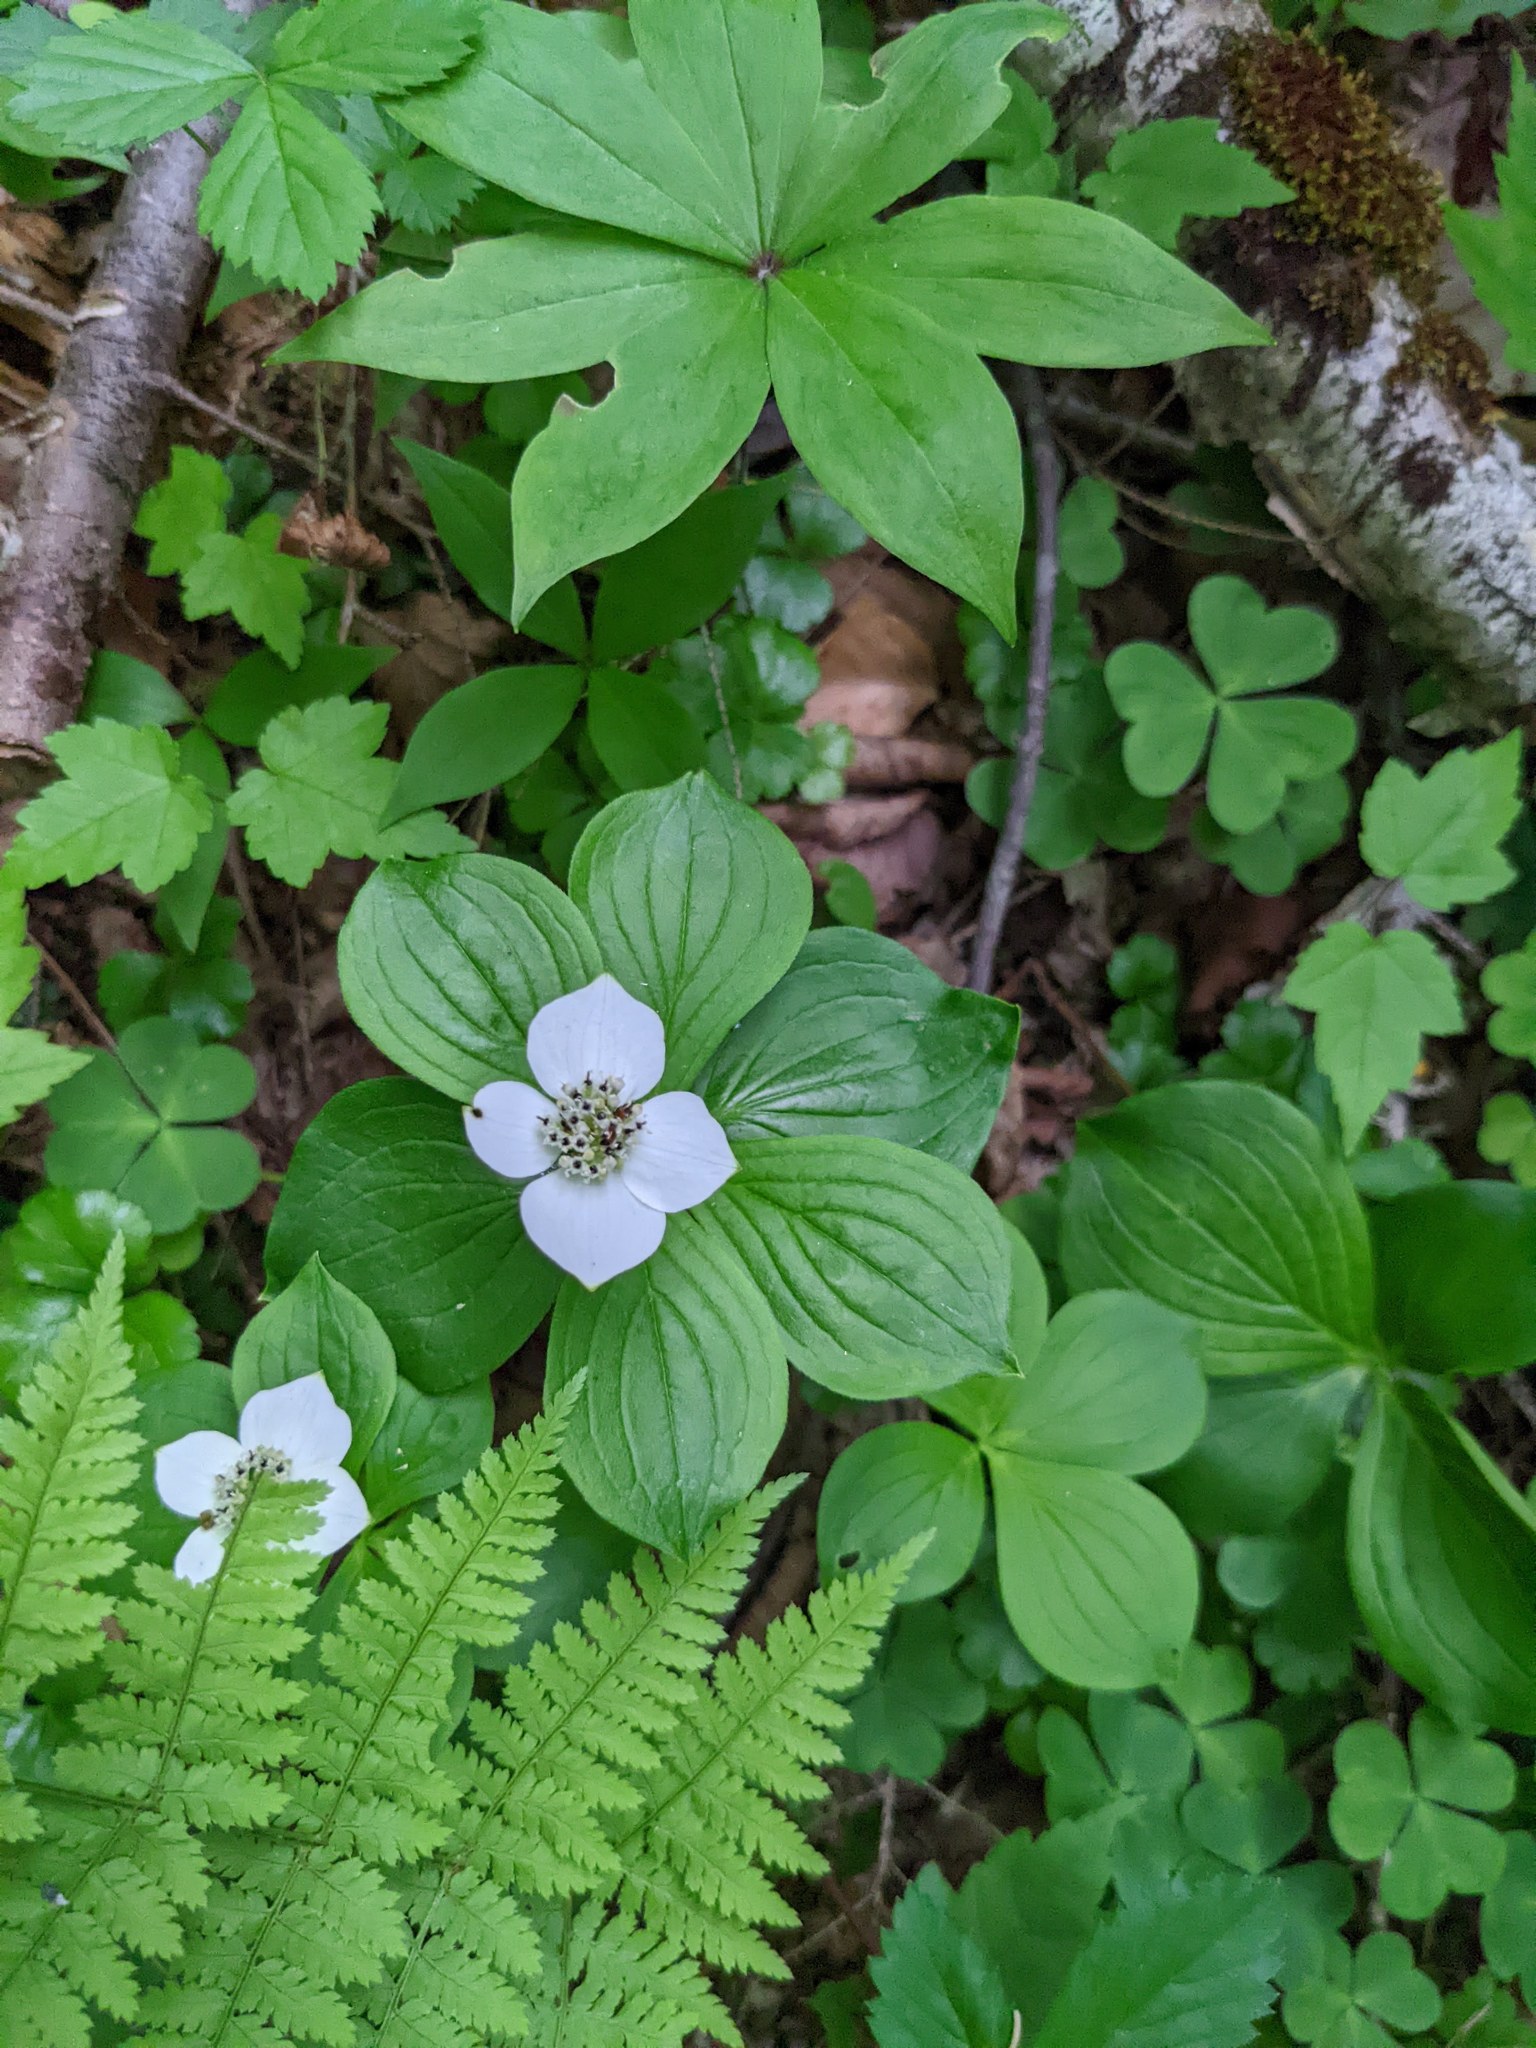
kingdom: Plantae
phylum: Tracheophyta
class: Magnoliopsida
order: Cornales
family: Cornaceae
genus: Cornus
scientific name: Cornus canadensis
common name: Creeping dogwood
